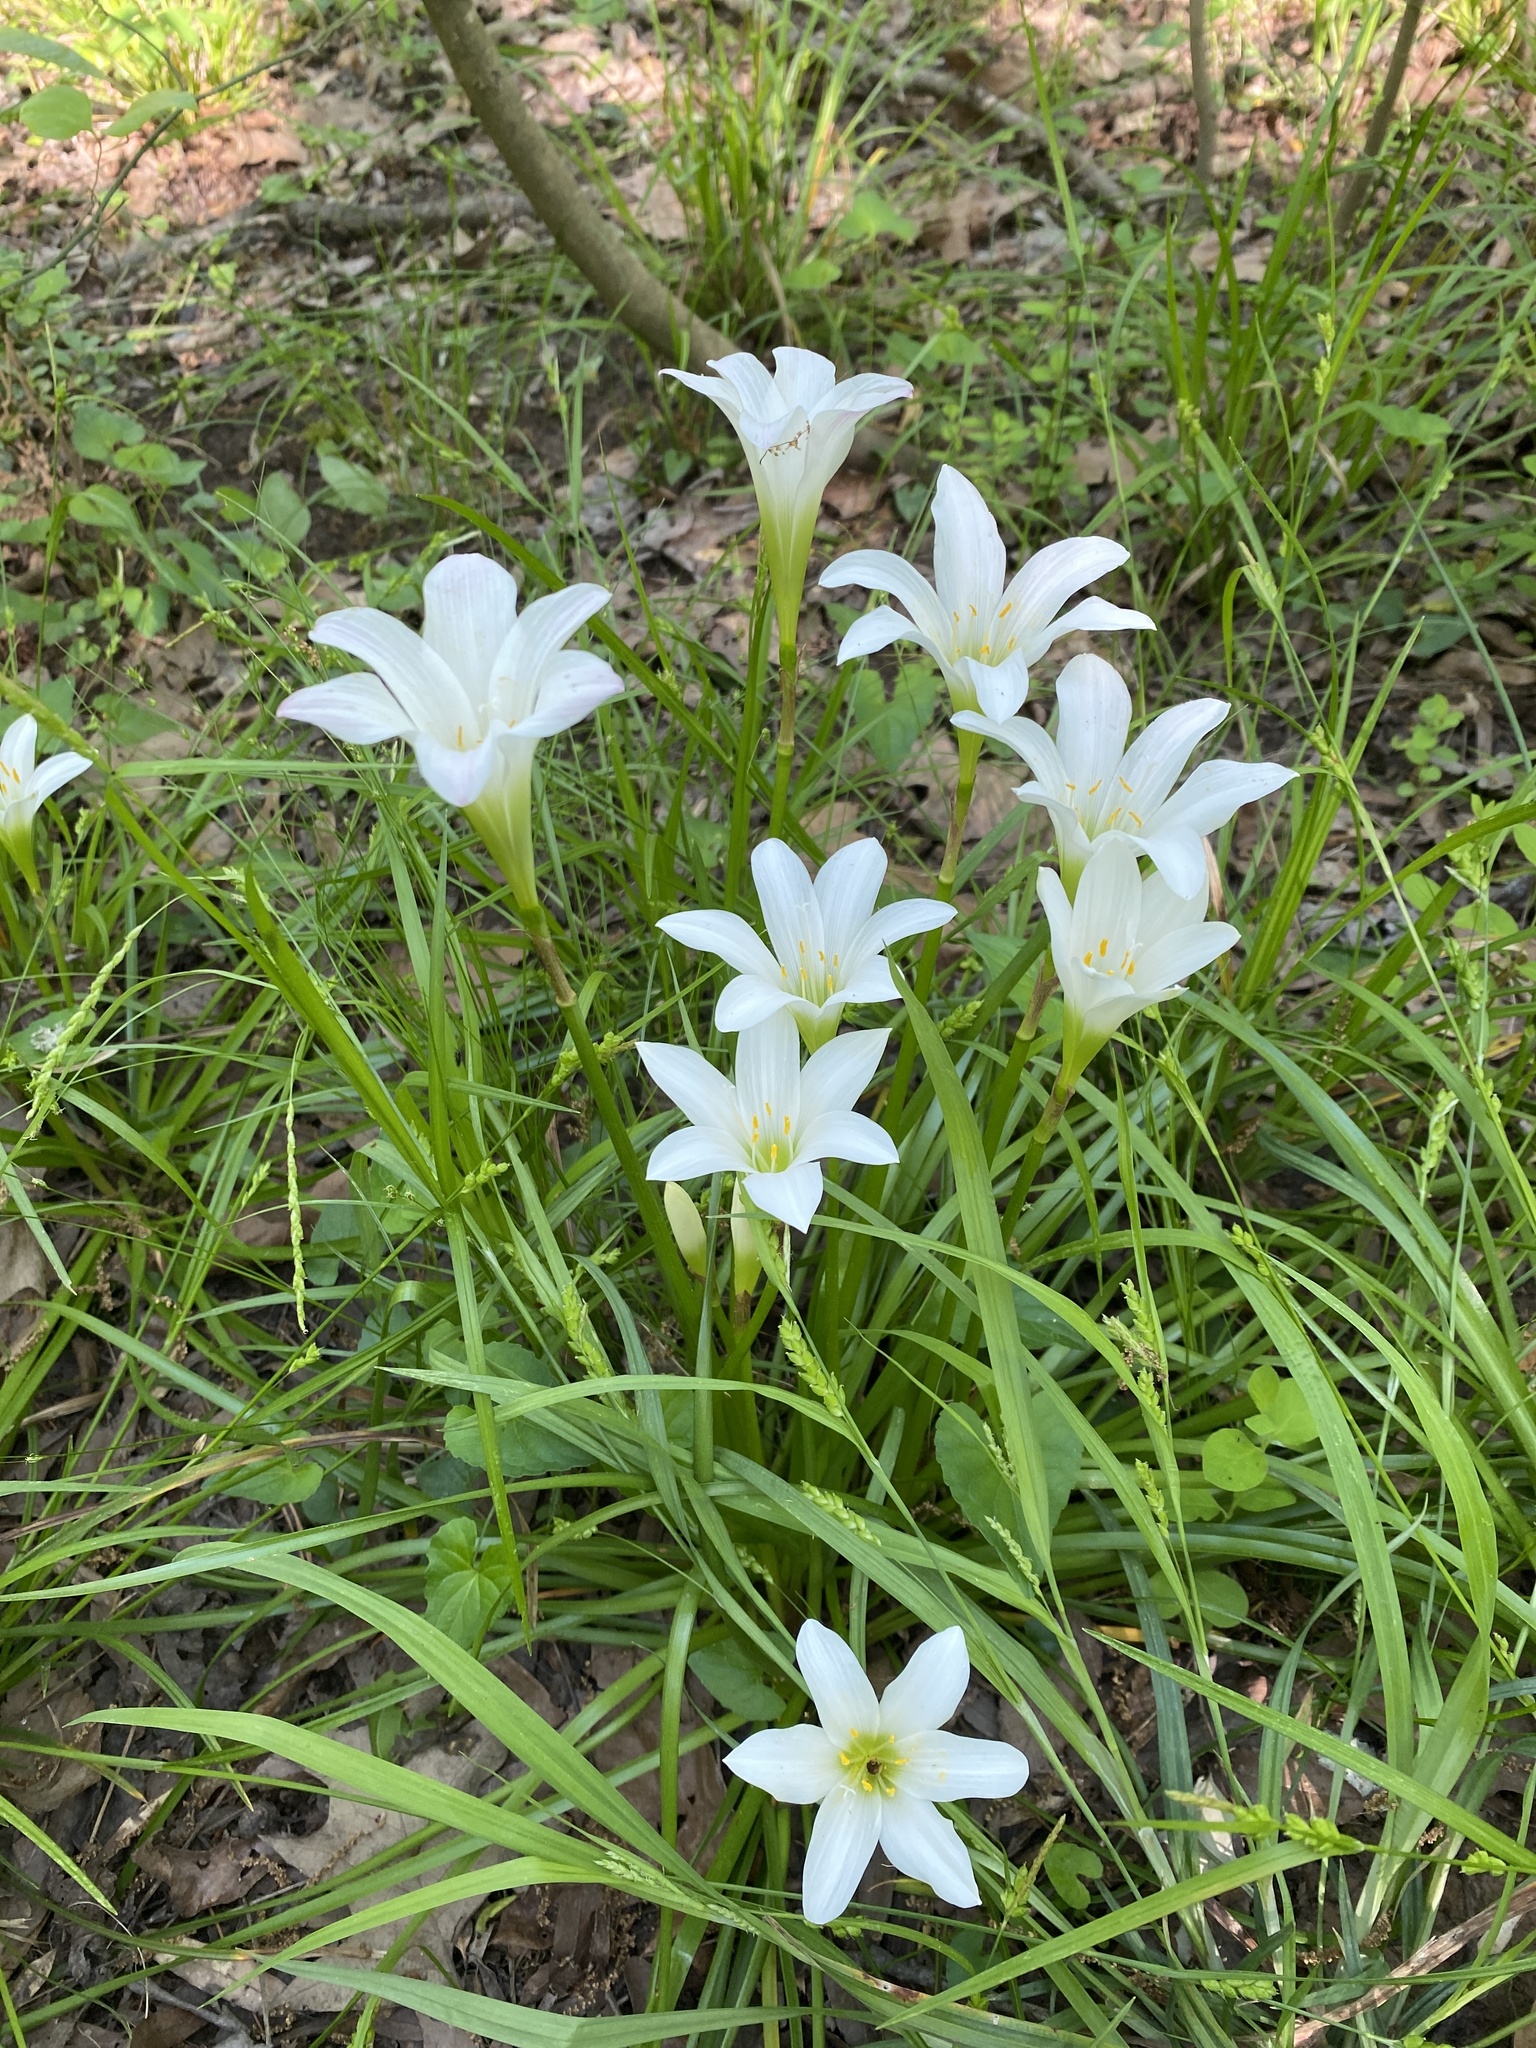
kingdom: Plantae
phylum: Tracheophyta
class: Liliopsida
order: Asparagales
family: Amaryllidaceae
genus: Zephyranthes
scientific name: Zephyranthes atamasco
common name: Atamasco lily
